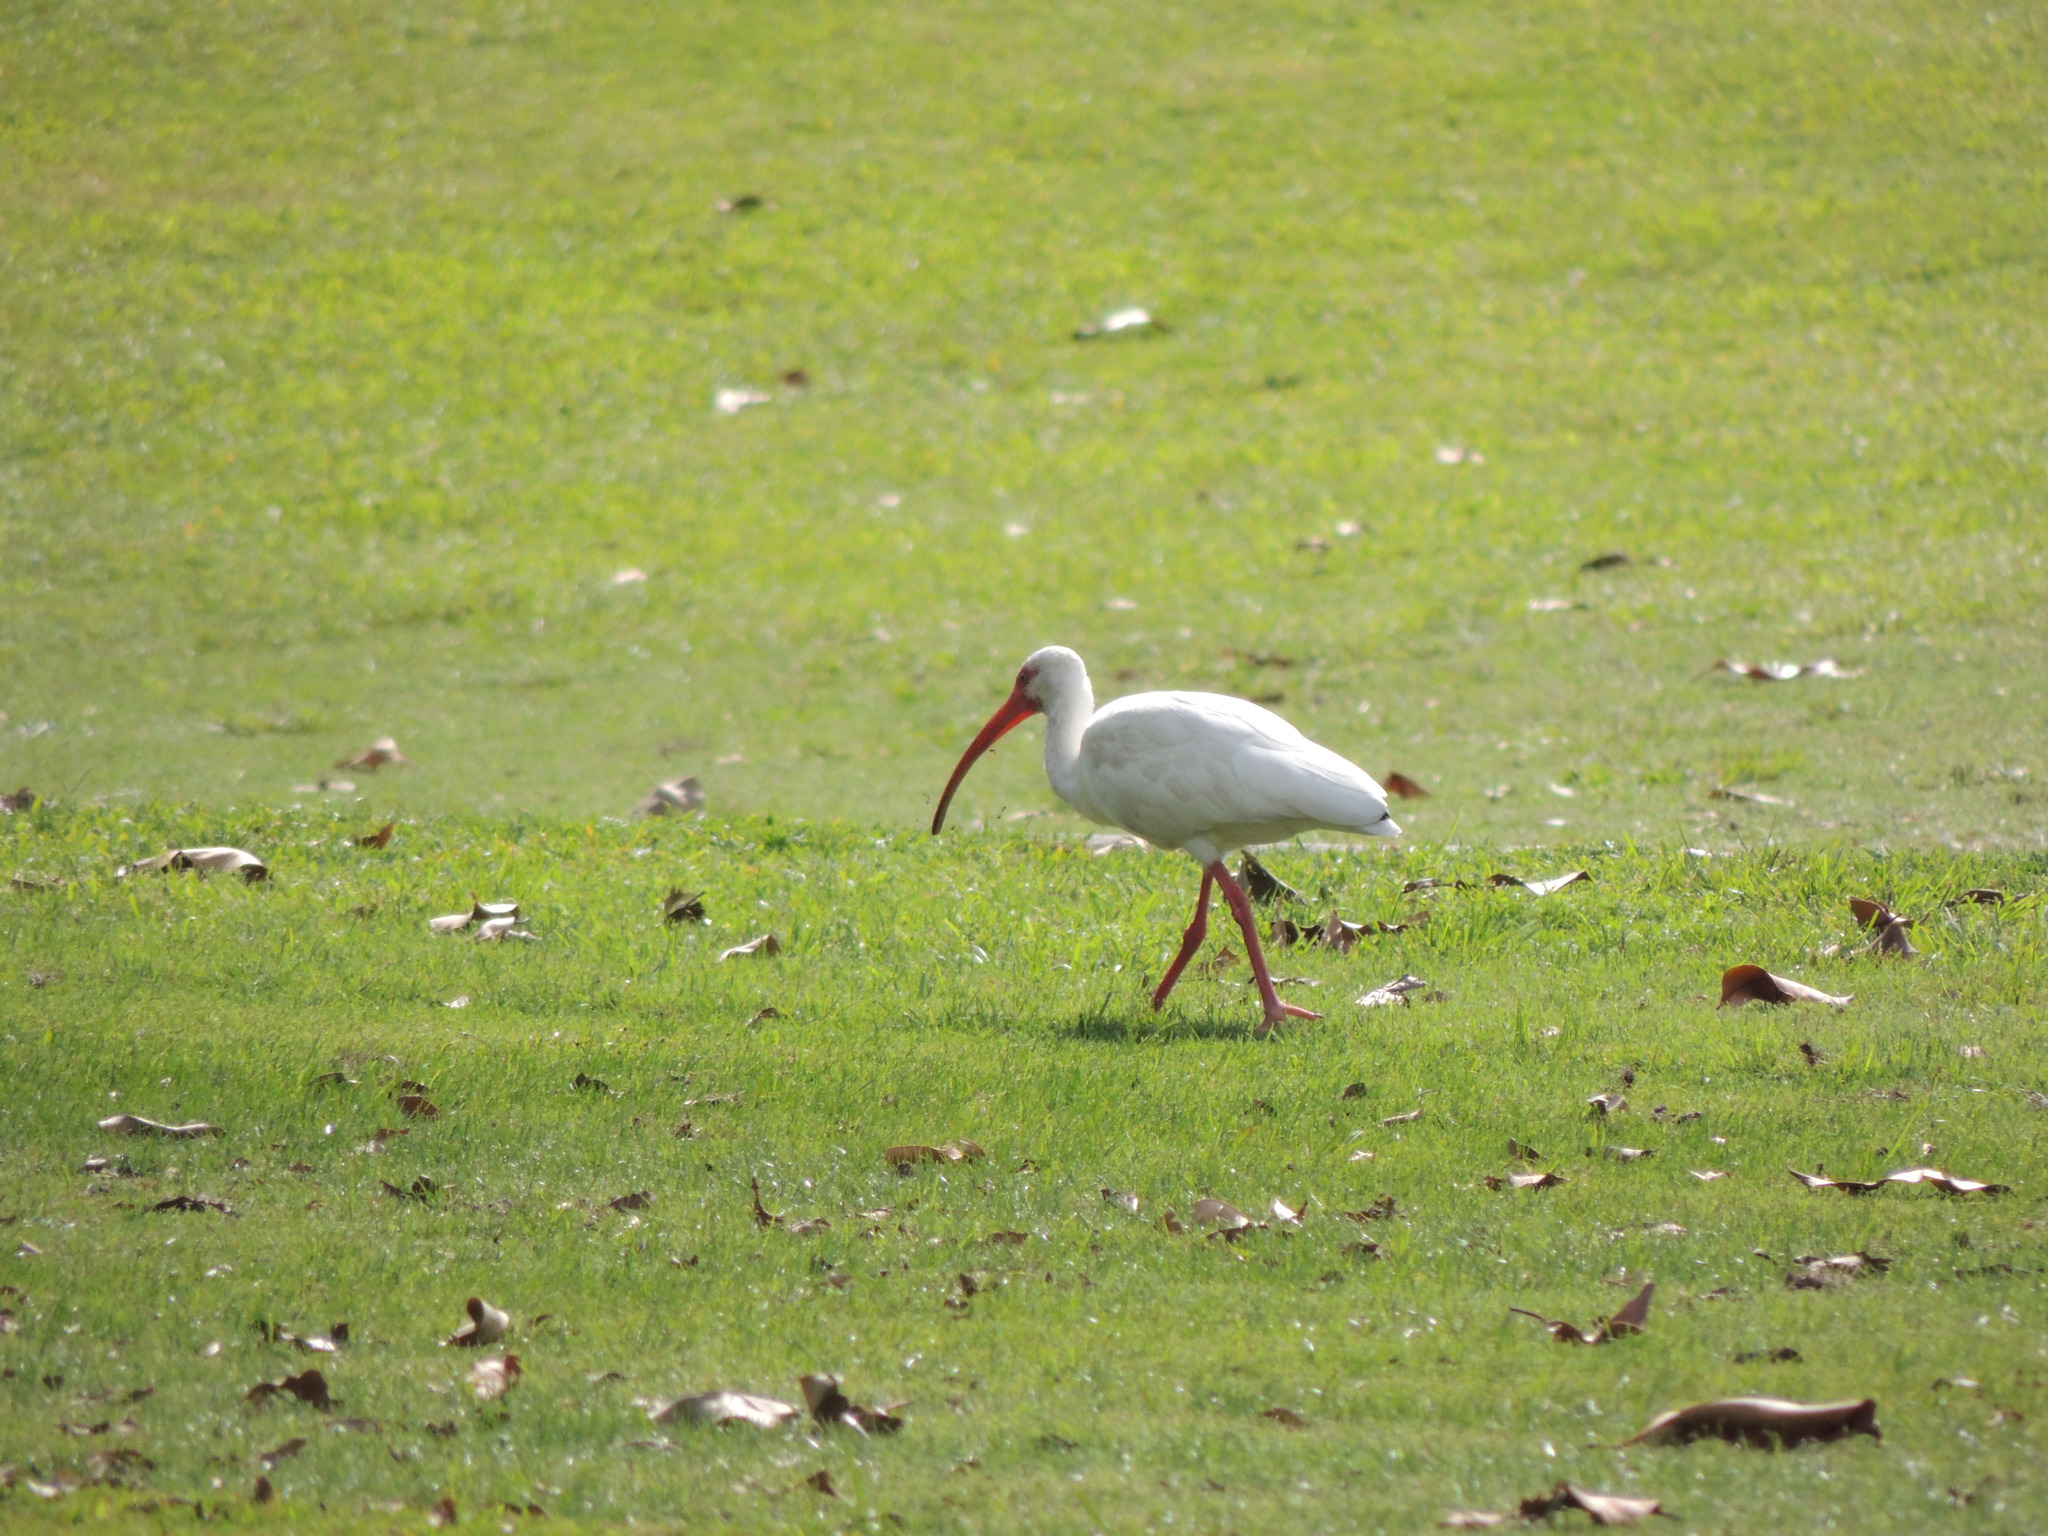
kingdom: Animalia
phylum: Chordata
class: Aves
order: Pelecaniformes
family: Threskiornithidae
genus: Eudocimus
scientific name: Eudocimus albus
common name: White ibis
